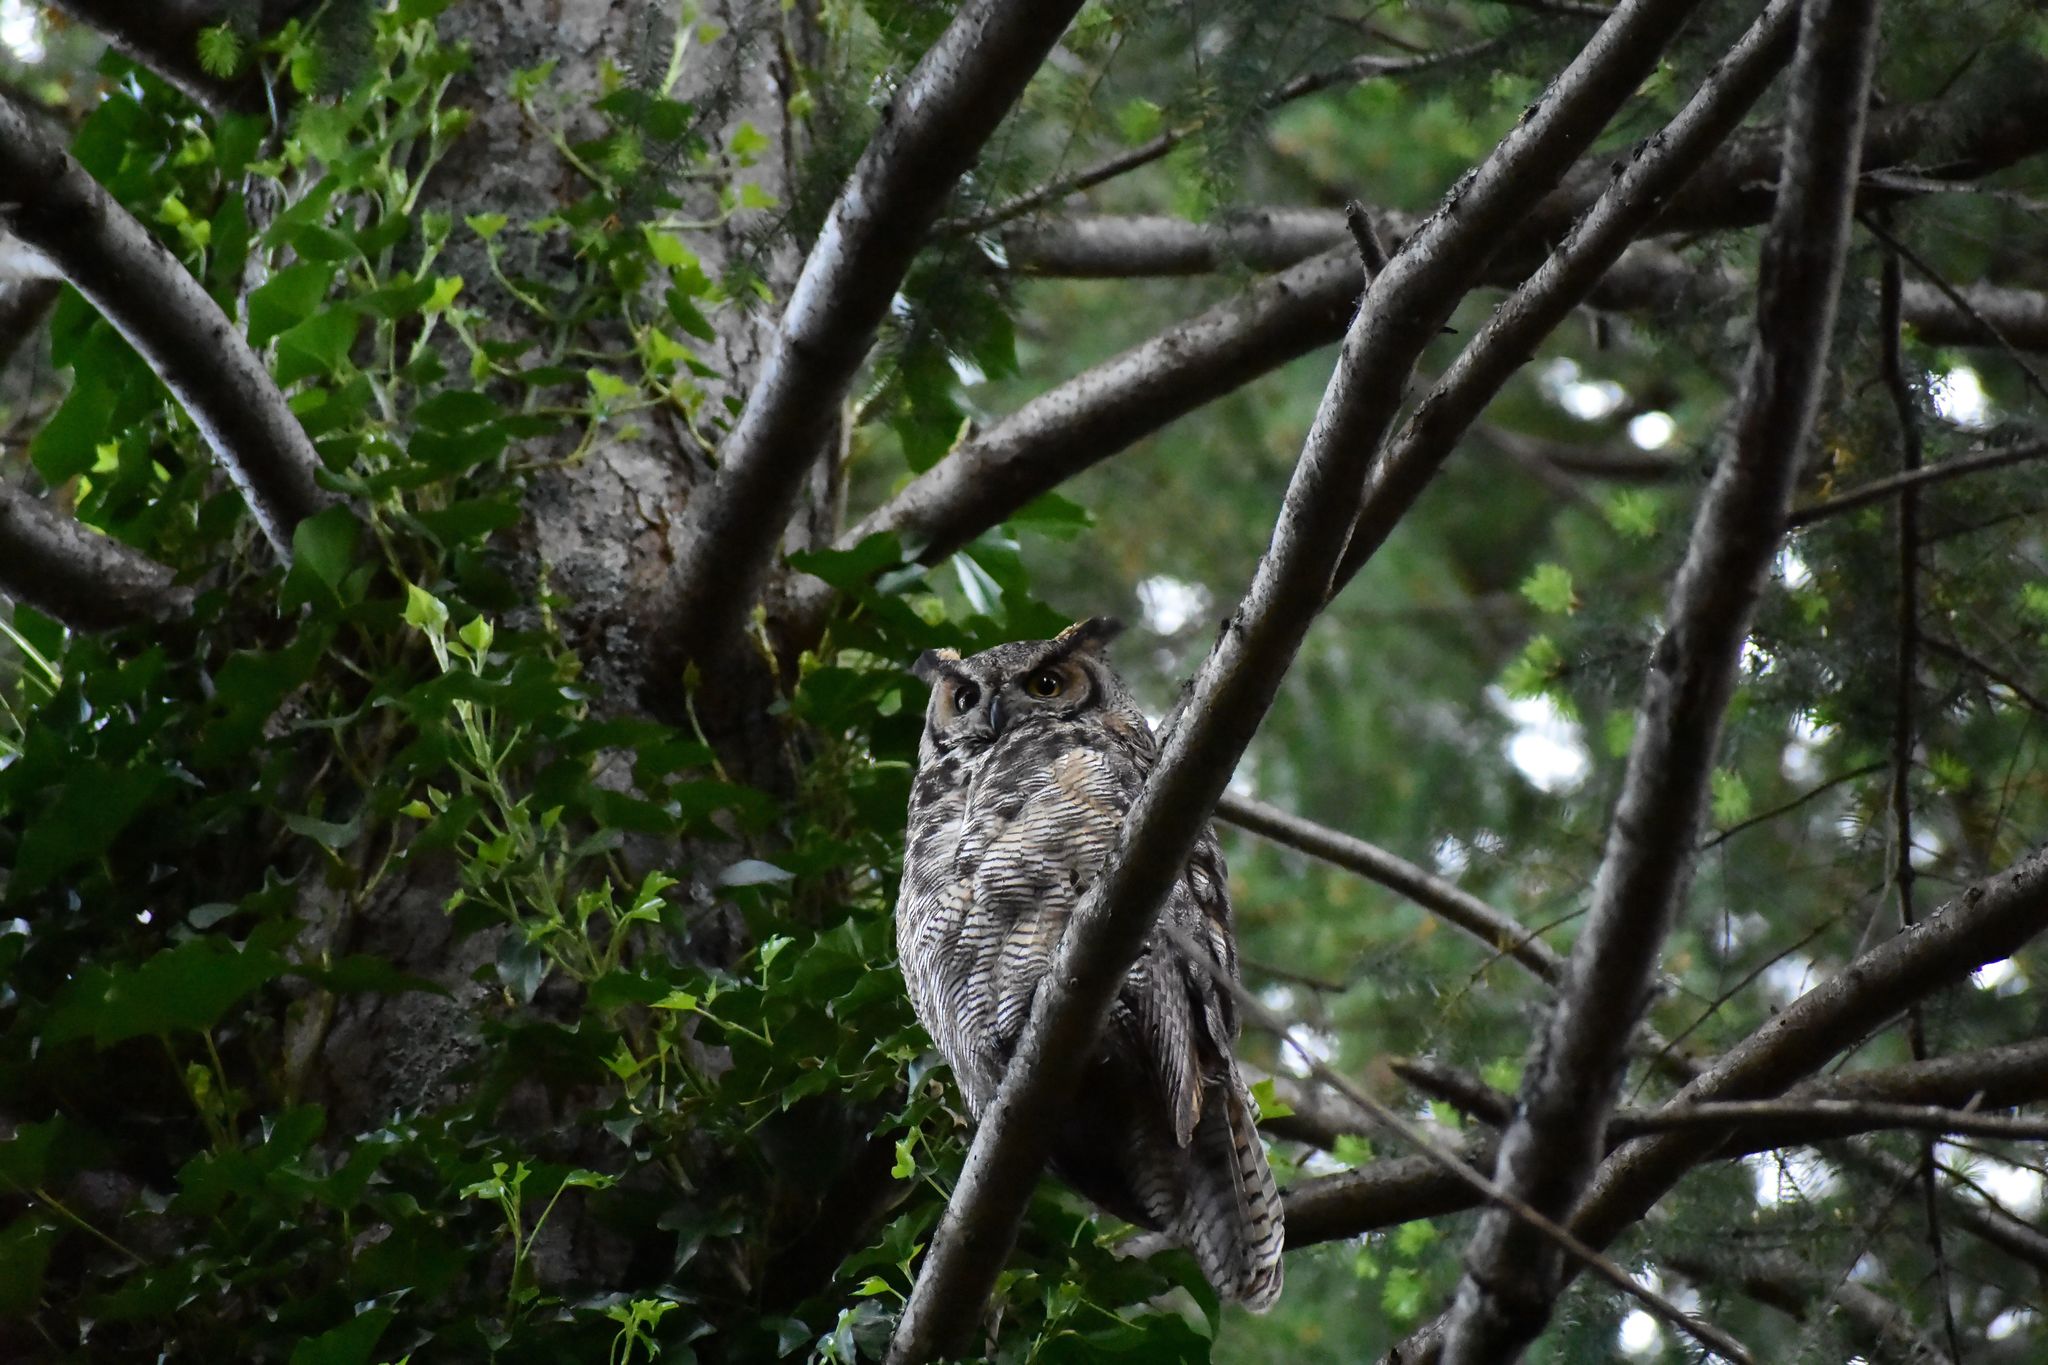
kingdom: Animalia
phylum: Chordata
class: Aves
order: Strigiformes
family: Strigidae
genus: Bubo
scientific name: Bubo virginianus
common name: Great horned owl
